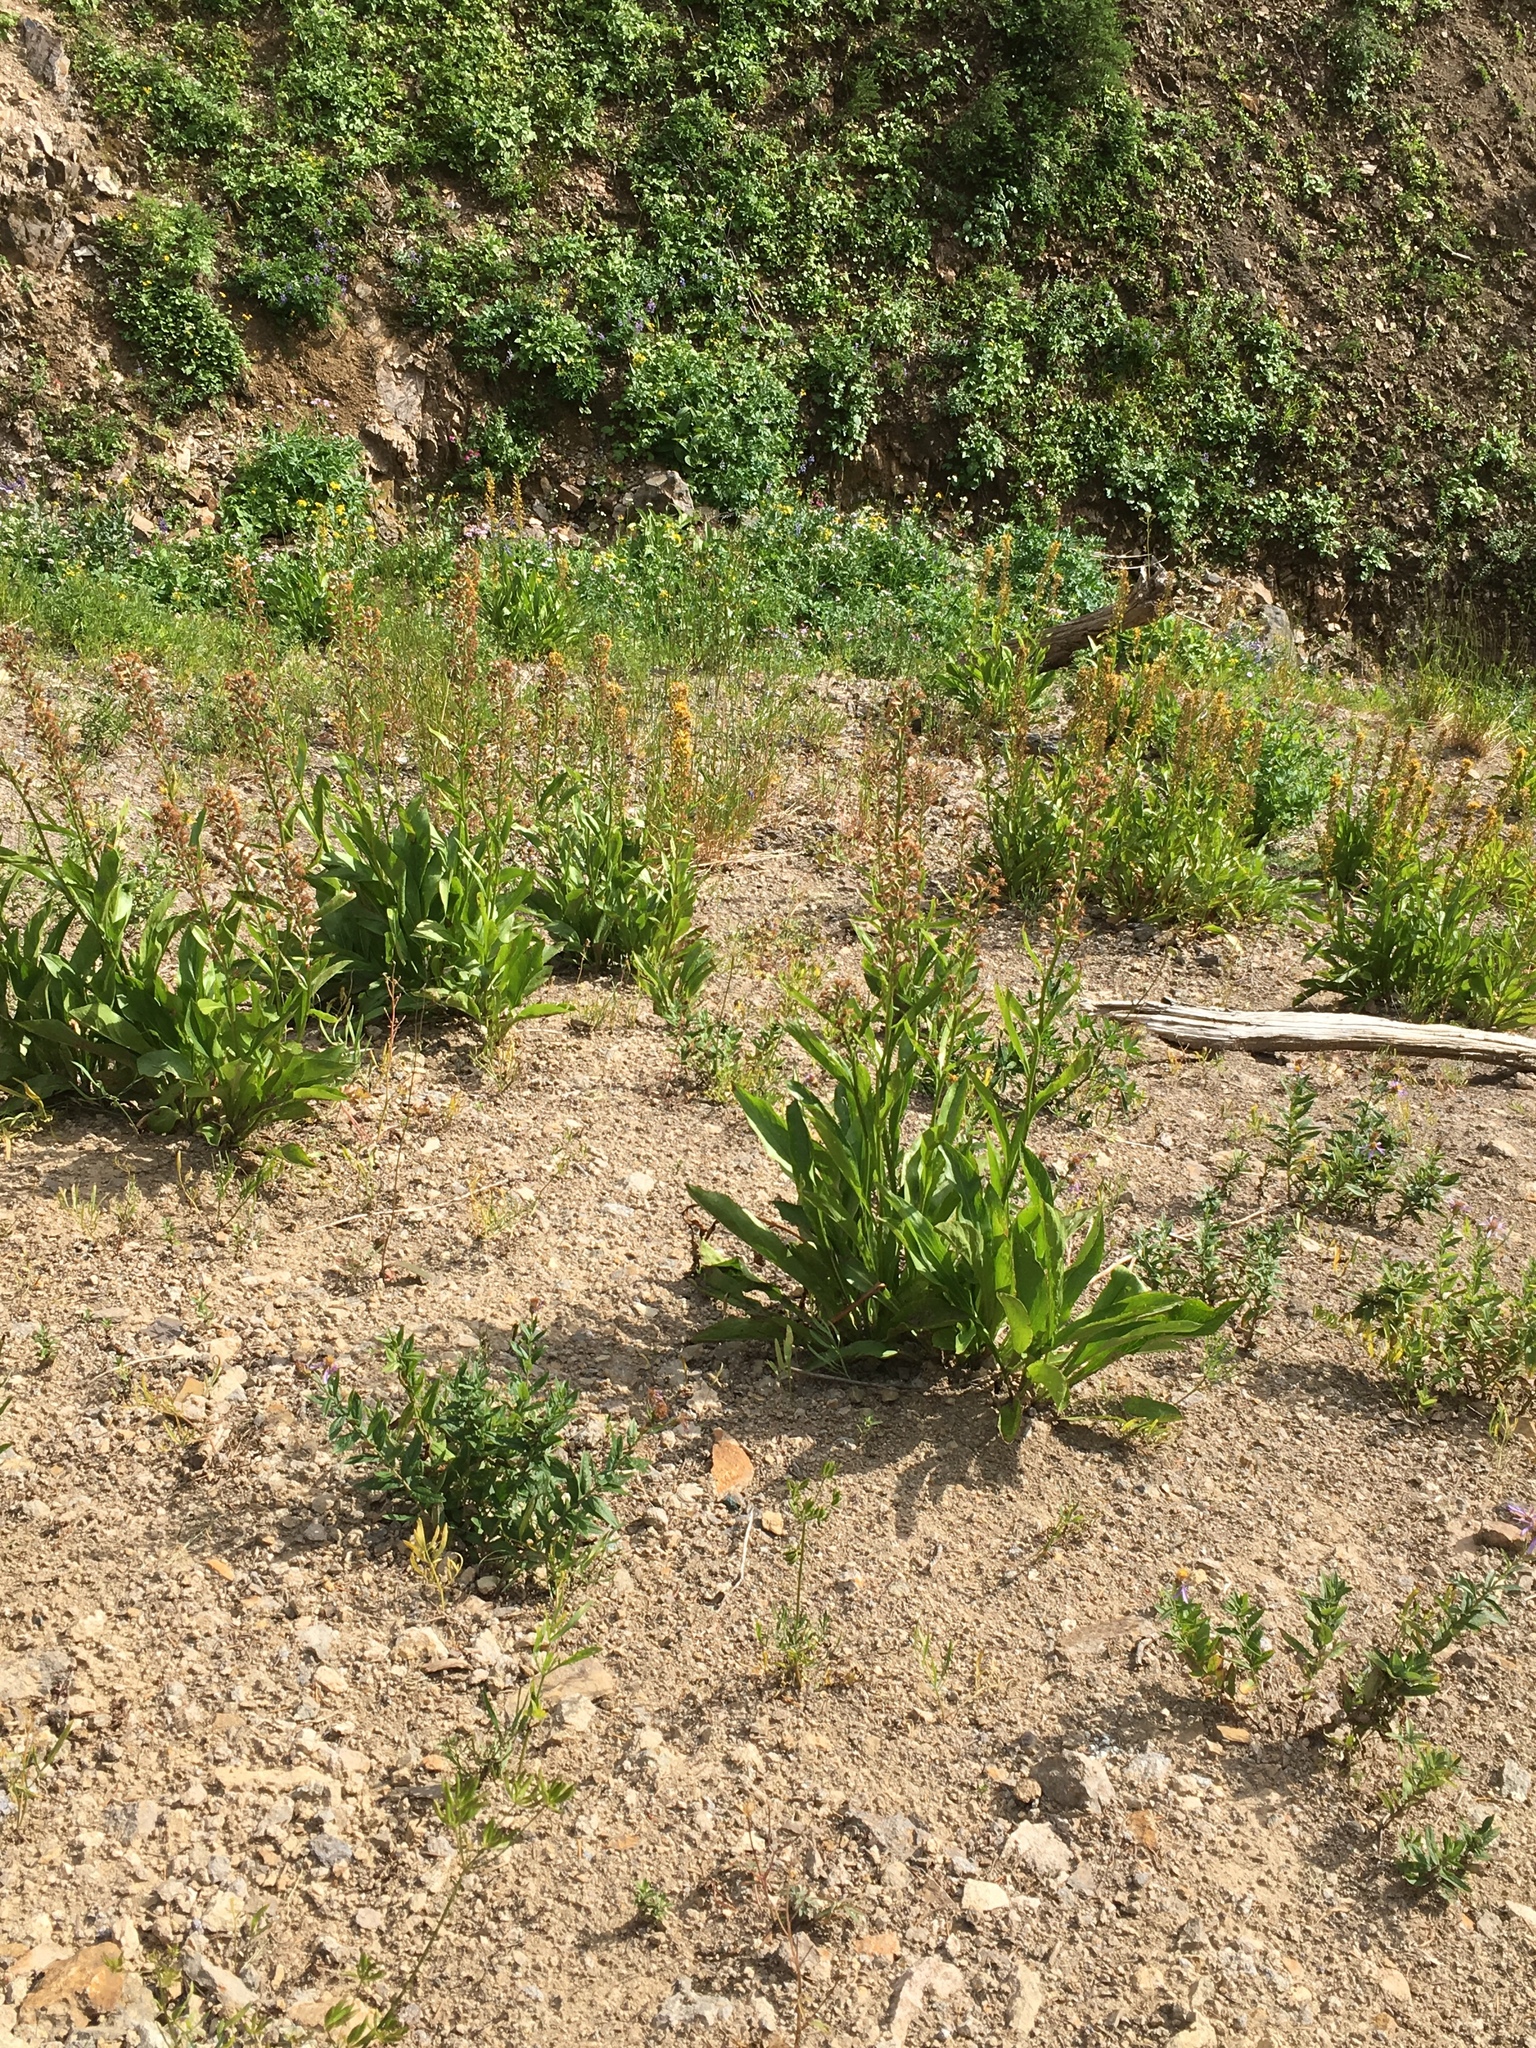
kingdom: Plantae
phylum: Tracheophyta
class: Magnoliopsida
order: Asterales
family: Asteraceae
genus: Rainiera
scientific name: Rainiera stricta
